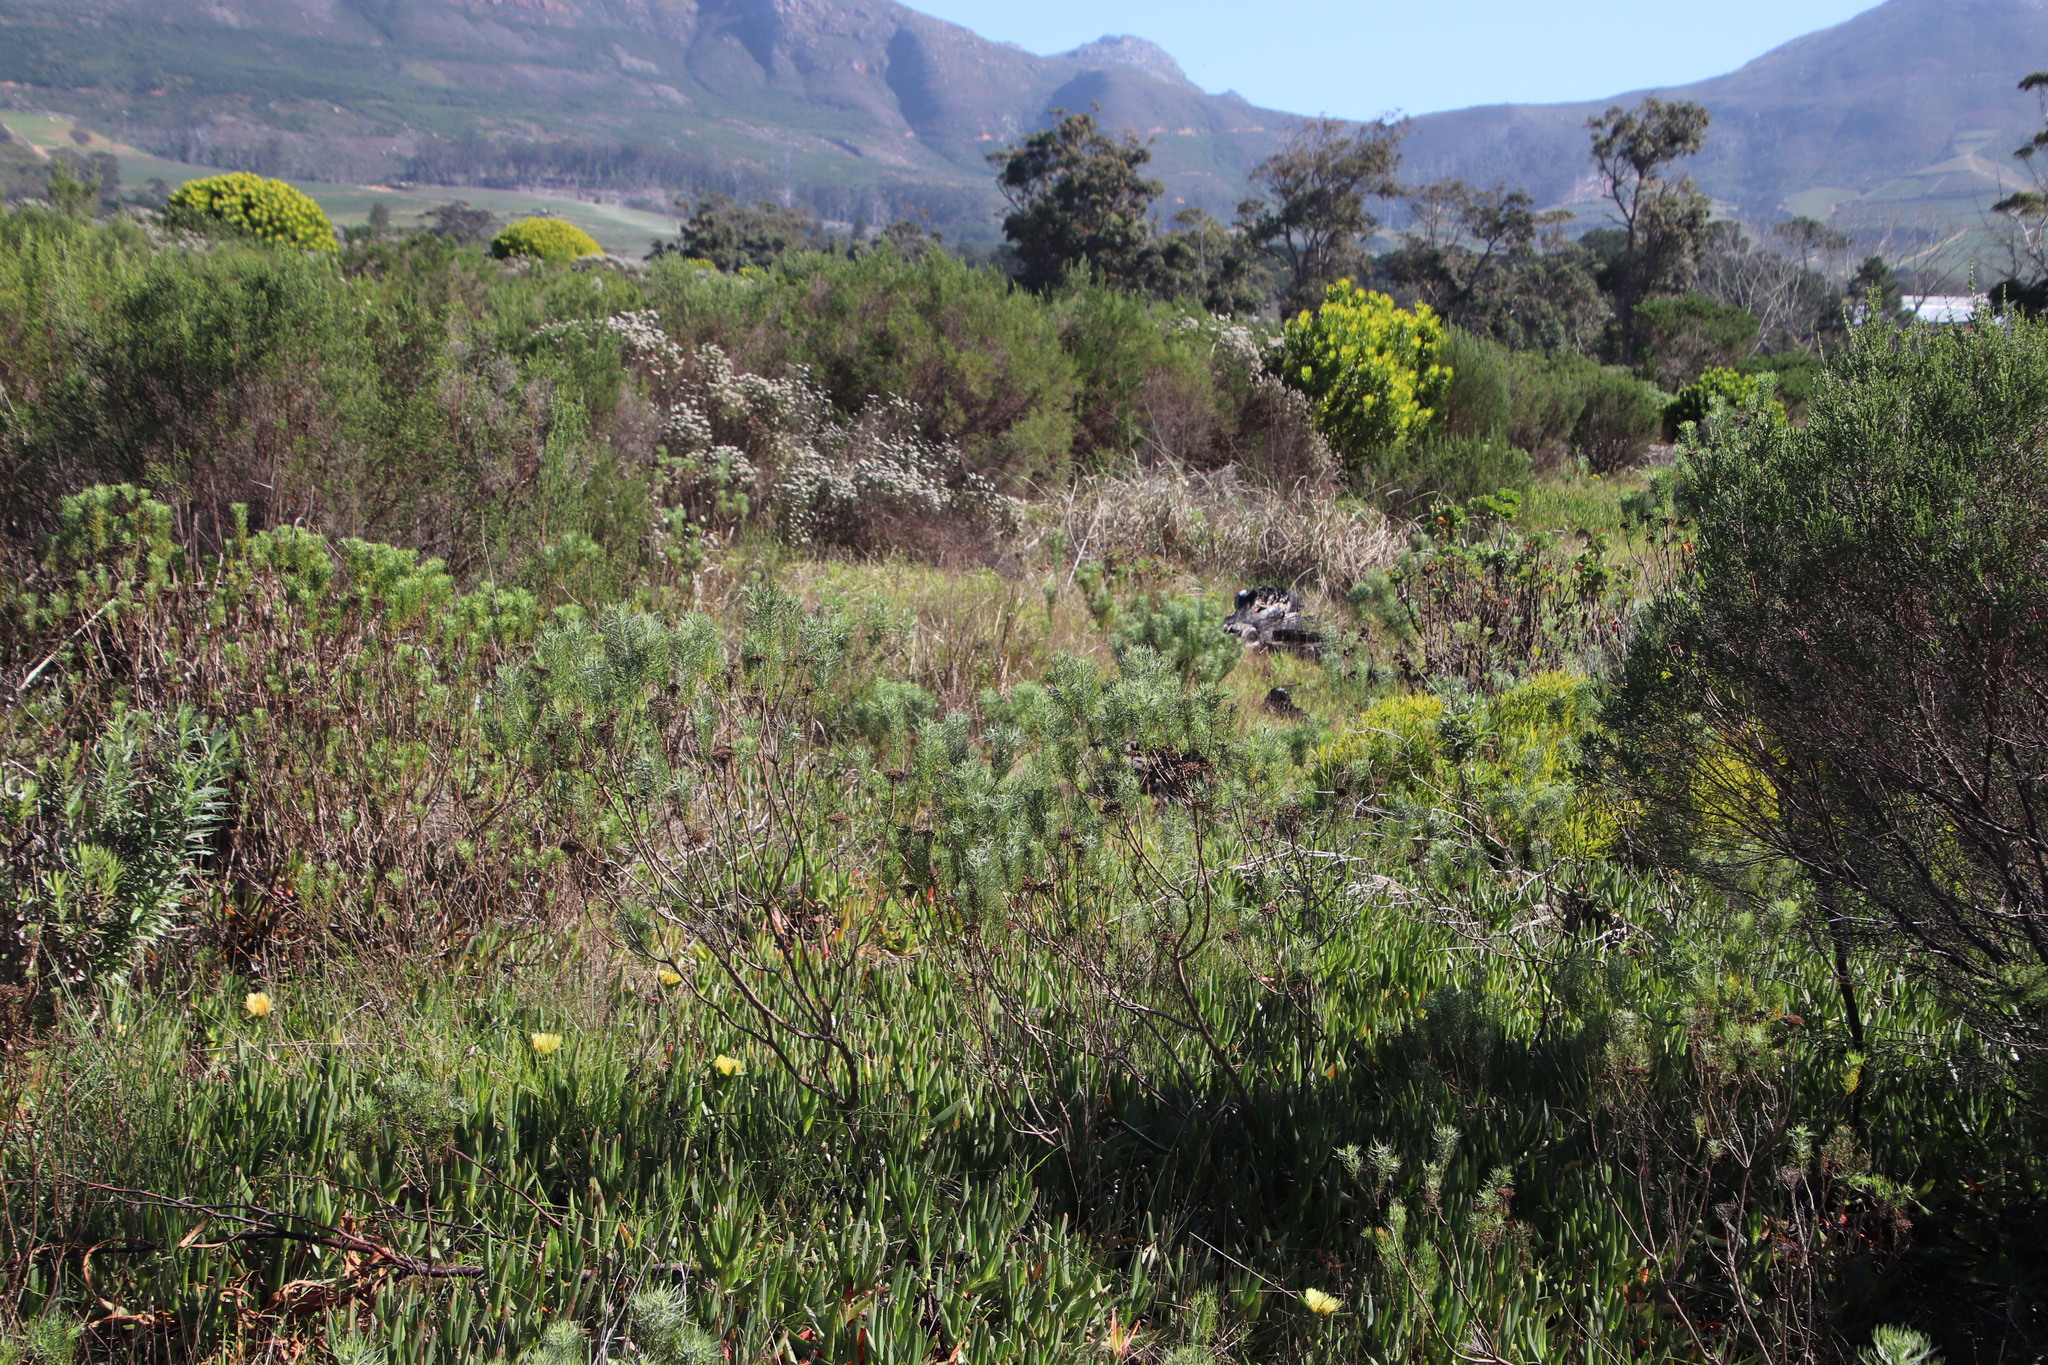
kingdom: Plantae
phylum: Tracheophyta
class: Magnoliopsida
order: Asterales
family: Asteraceae
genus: Athanasia
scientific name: Athanasia crithmifolia
